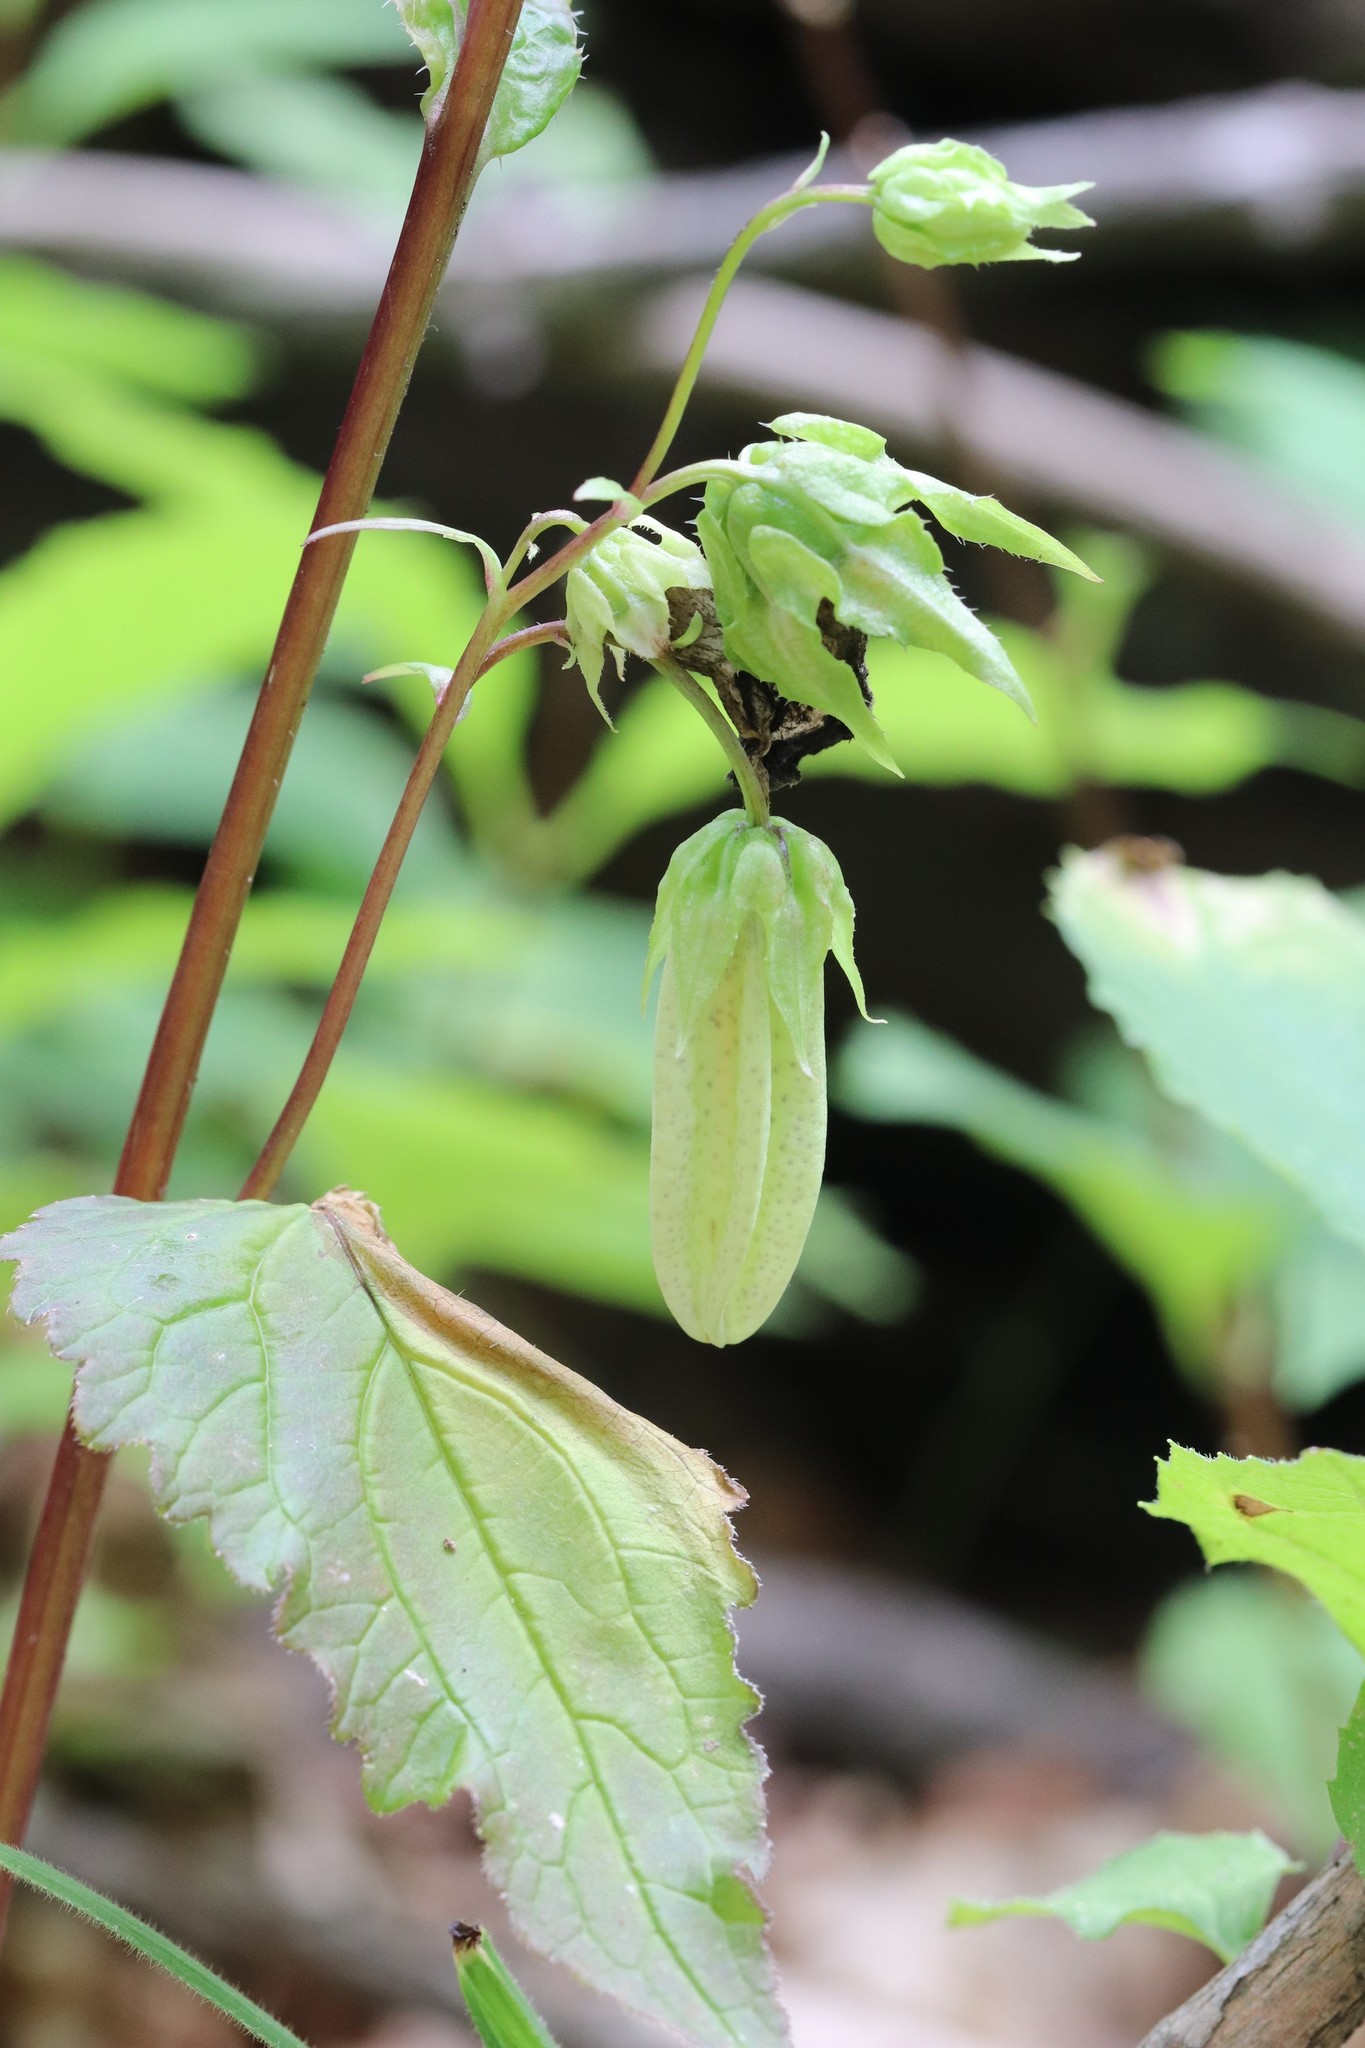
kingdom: Plantae
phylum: Tracheophyta
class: Magnoliopsida
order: Asterales
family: Campanulaceae
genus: Campanula
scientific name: Campanula punctata
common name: Spotted bellflower
